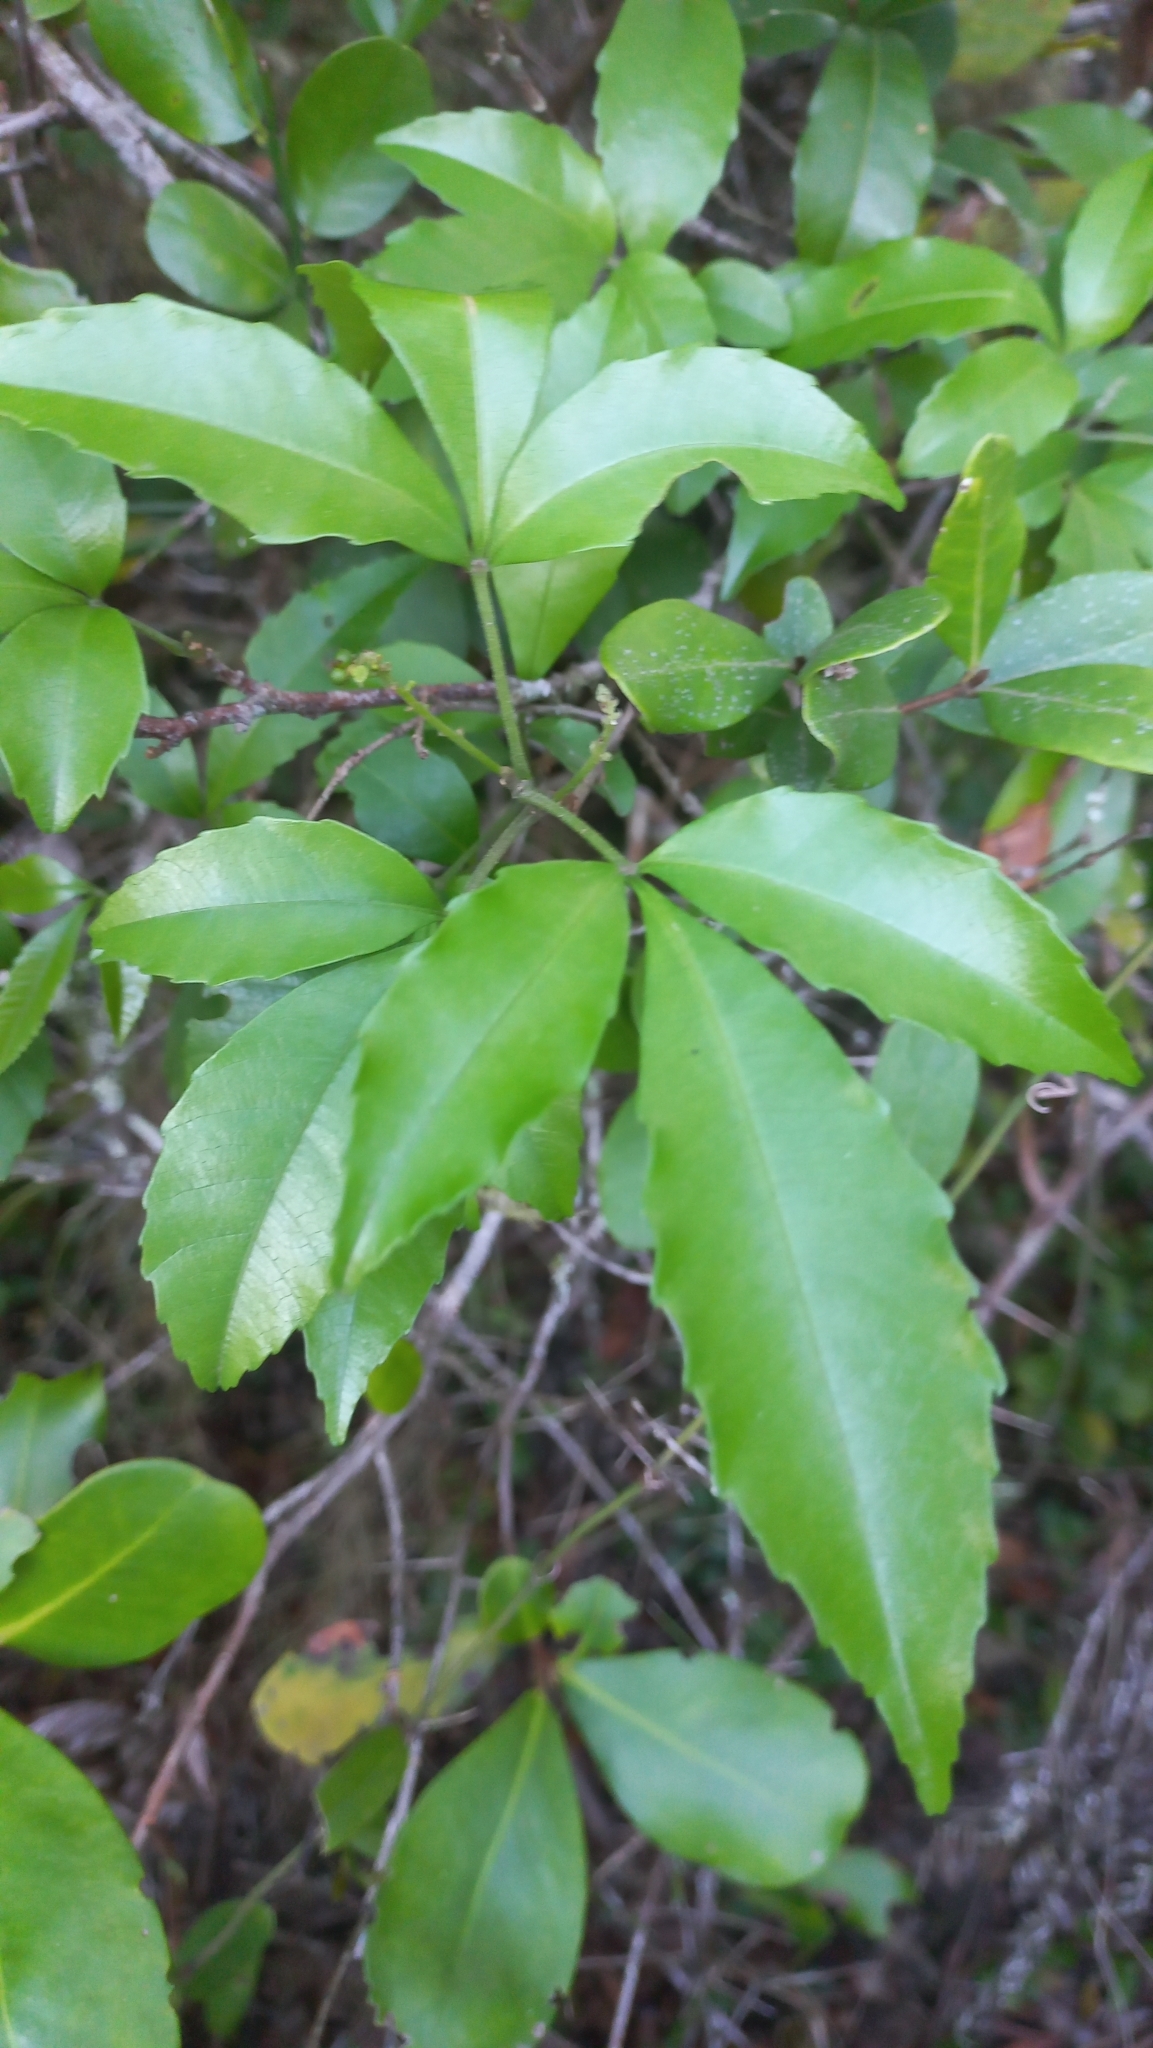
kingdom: Plantae
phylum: Tracheophyta
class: Magnoliopsida
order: Sapindales
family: Sapindaceae
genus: Allophylus
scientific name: Allophylus edulis
